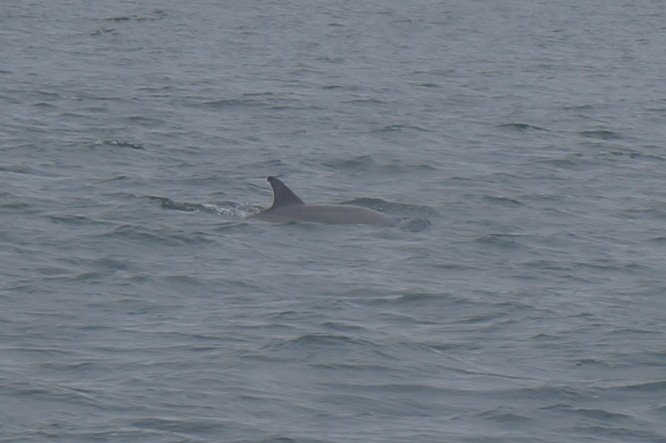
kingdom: Animalia
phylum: Chordata
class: Mammalia
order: Cetacea
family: Delphinidae
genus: Tursiops
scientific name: Tursiops truncatus
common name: Bottlenose dolphin
